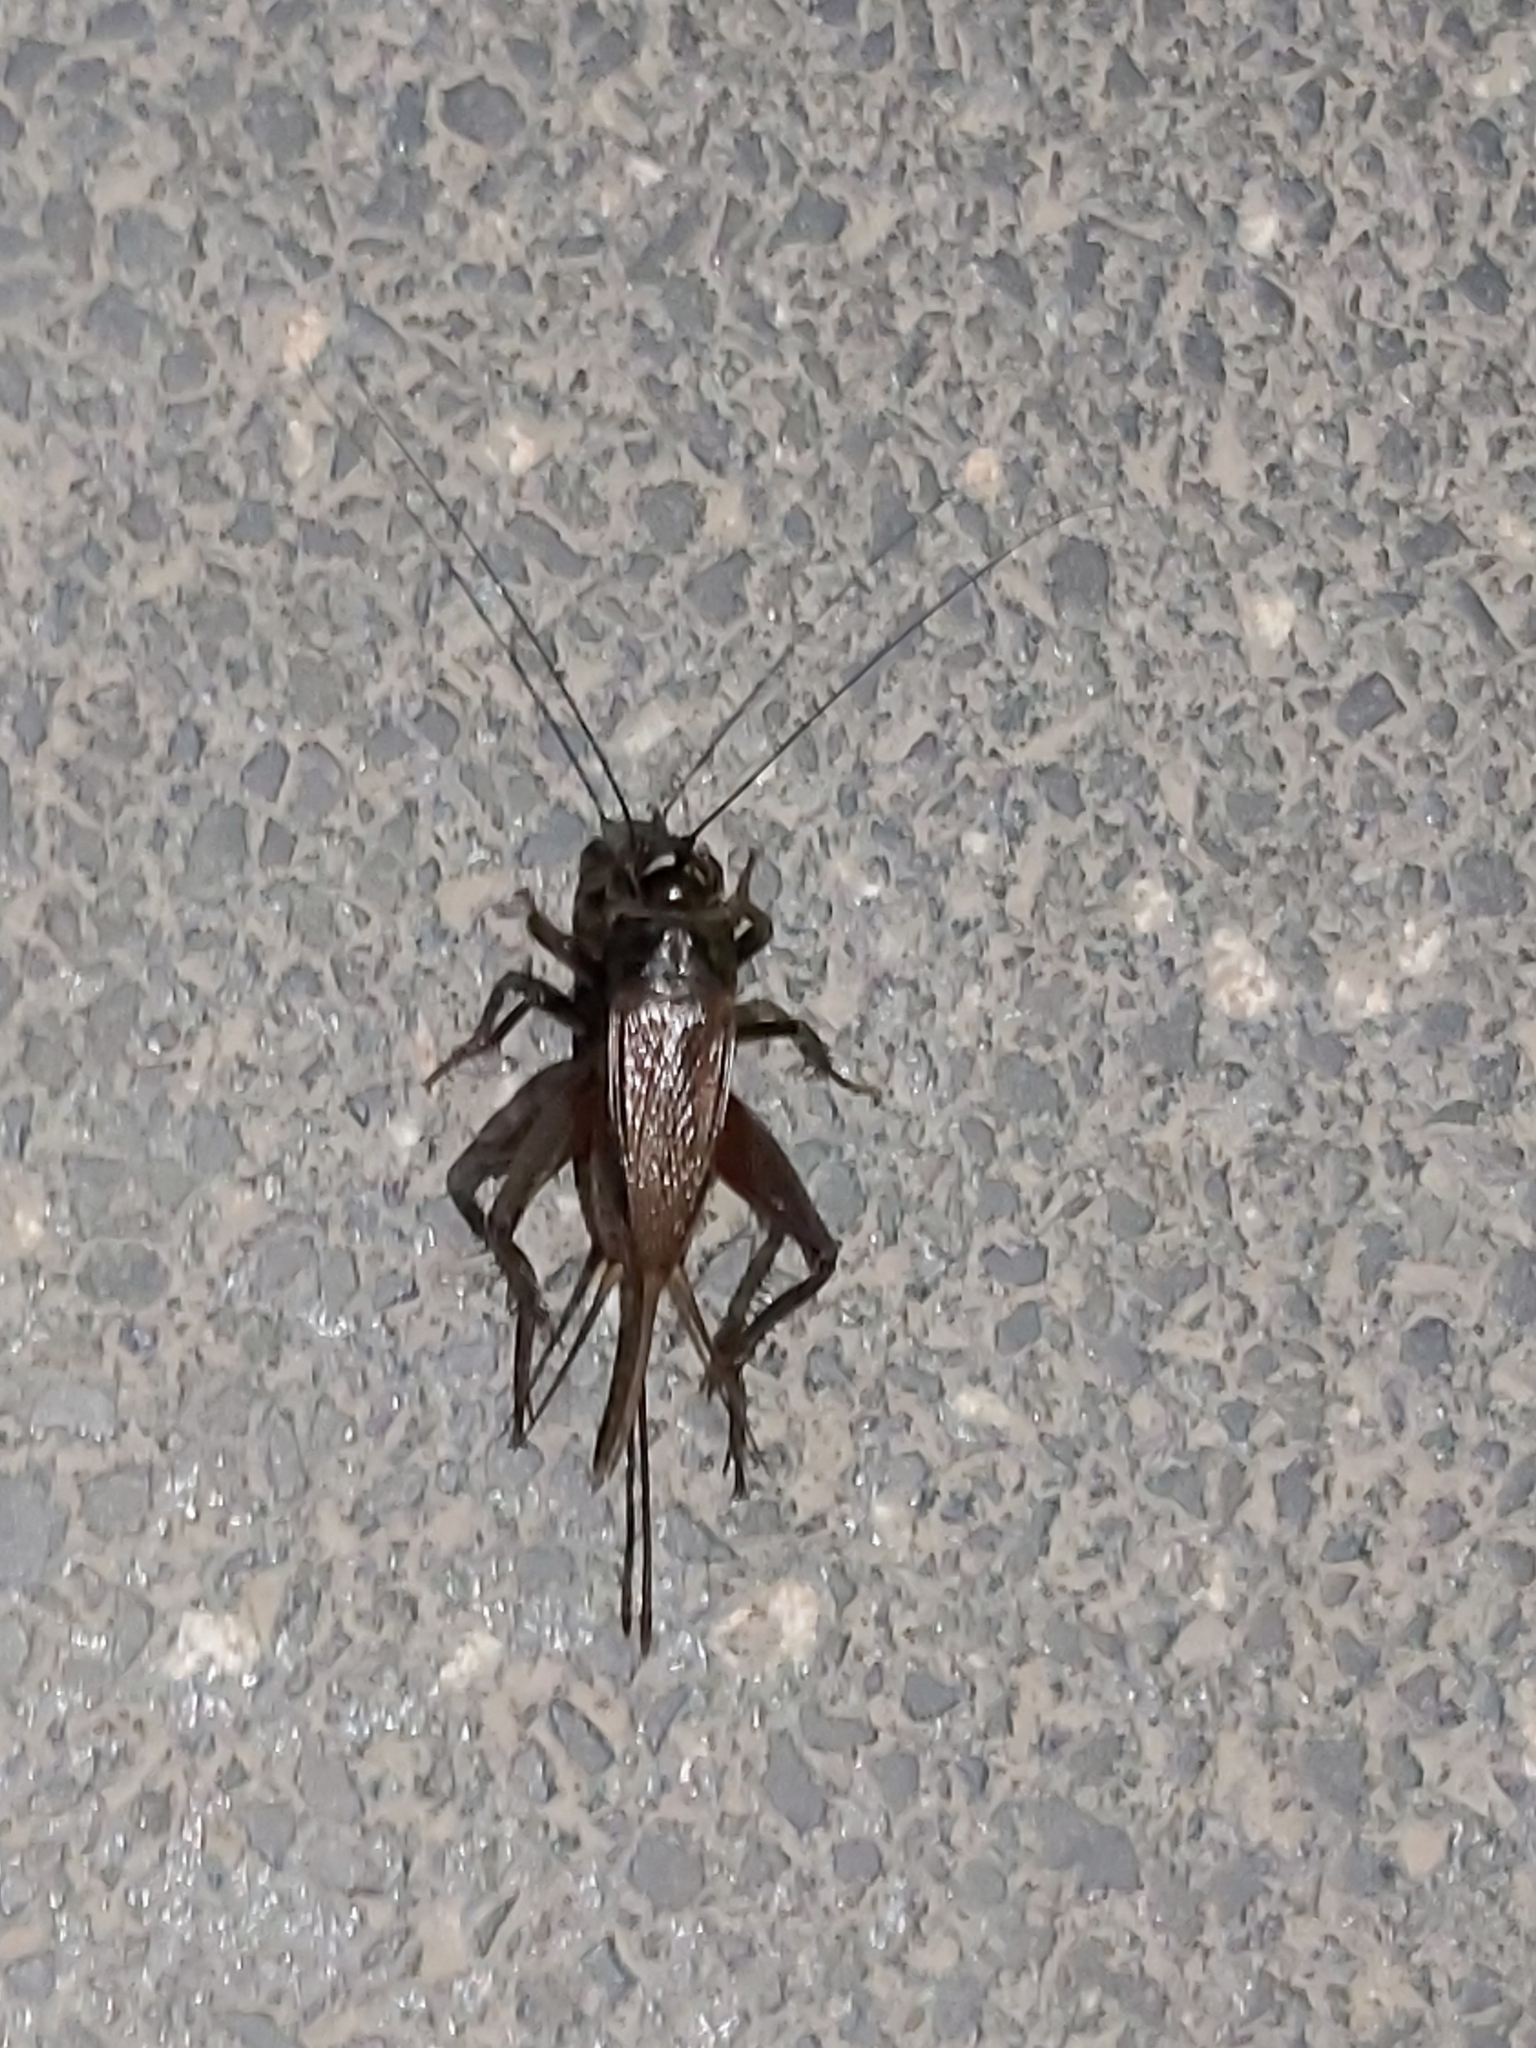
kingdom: Animalia
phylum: Arthropoda
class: Insecta
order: Orthoptera
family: Gryllidae
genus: Teleogryllus
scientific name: Teleogryllus commodus
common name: Black field cricket
